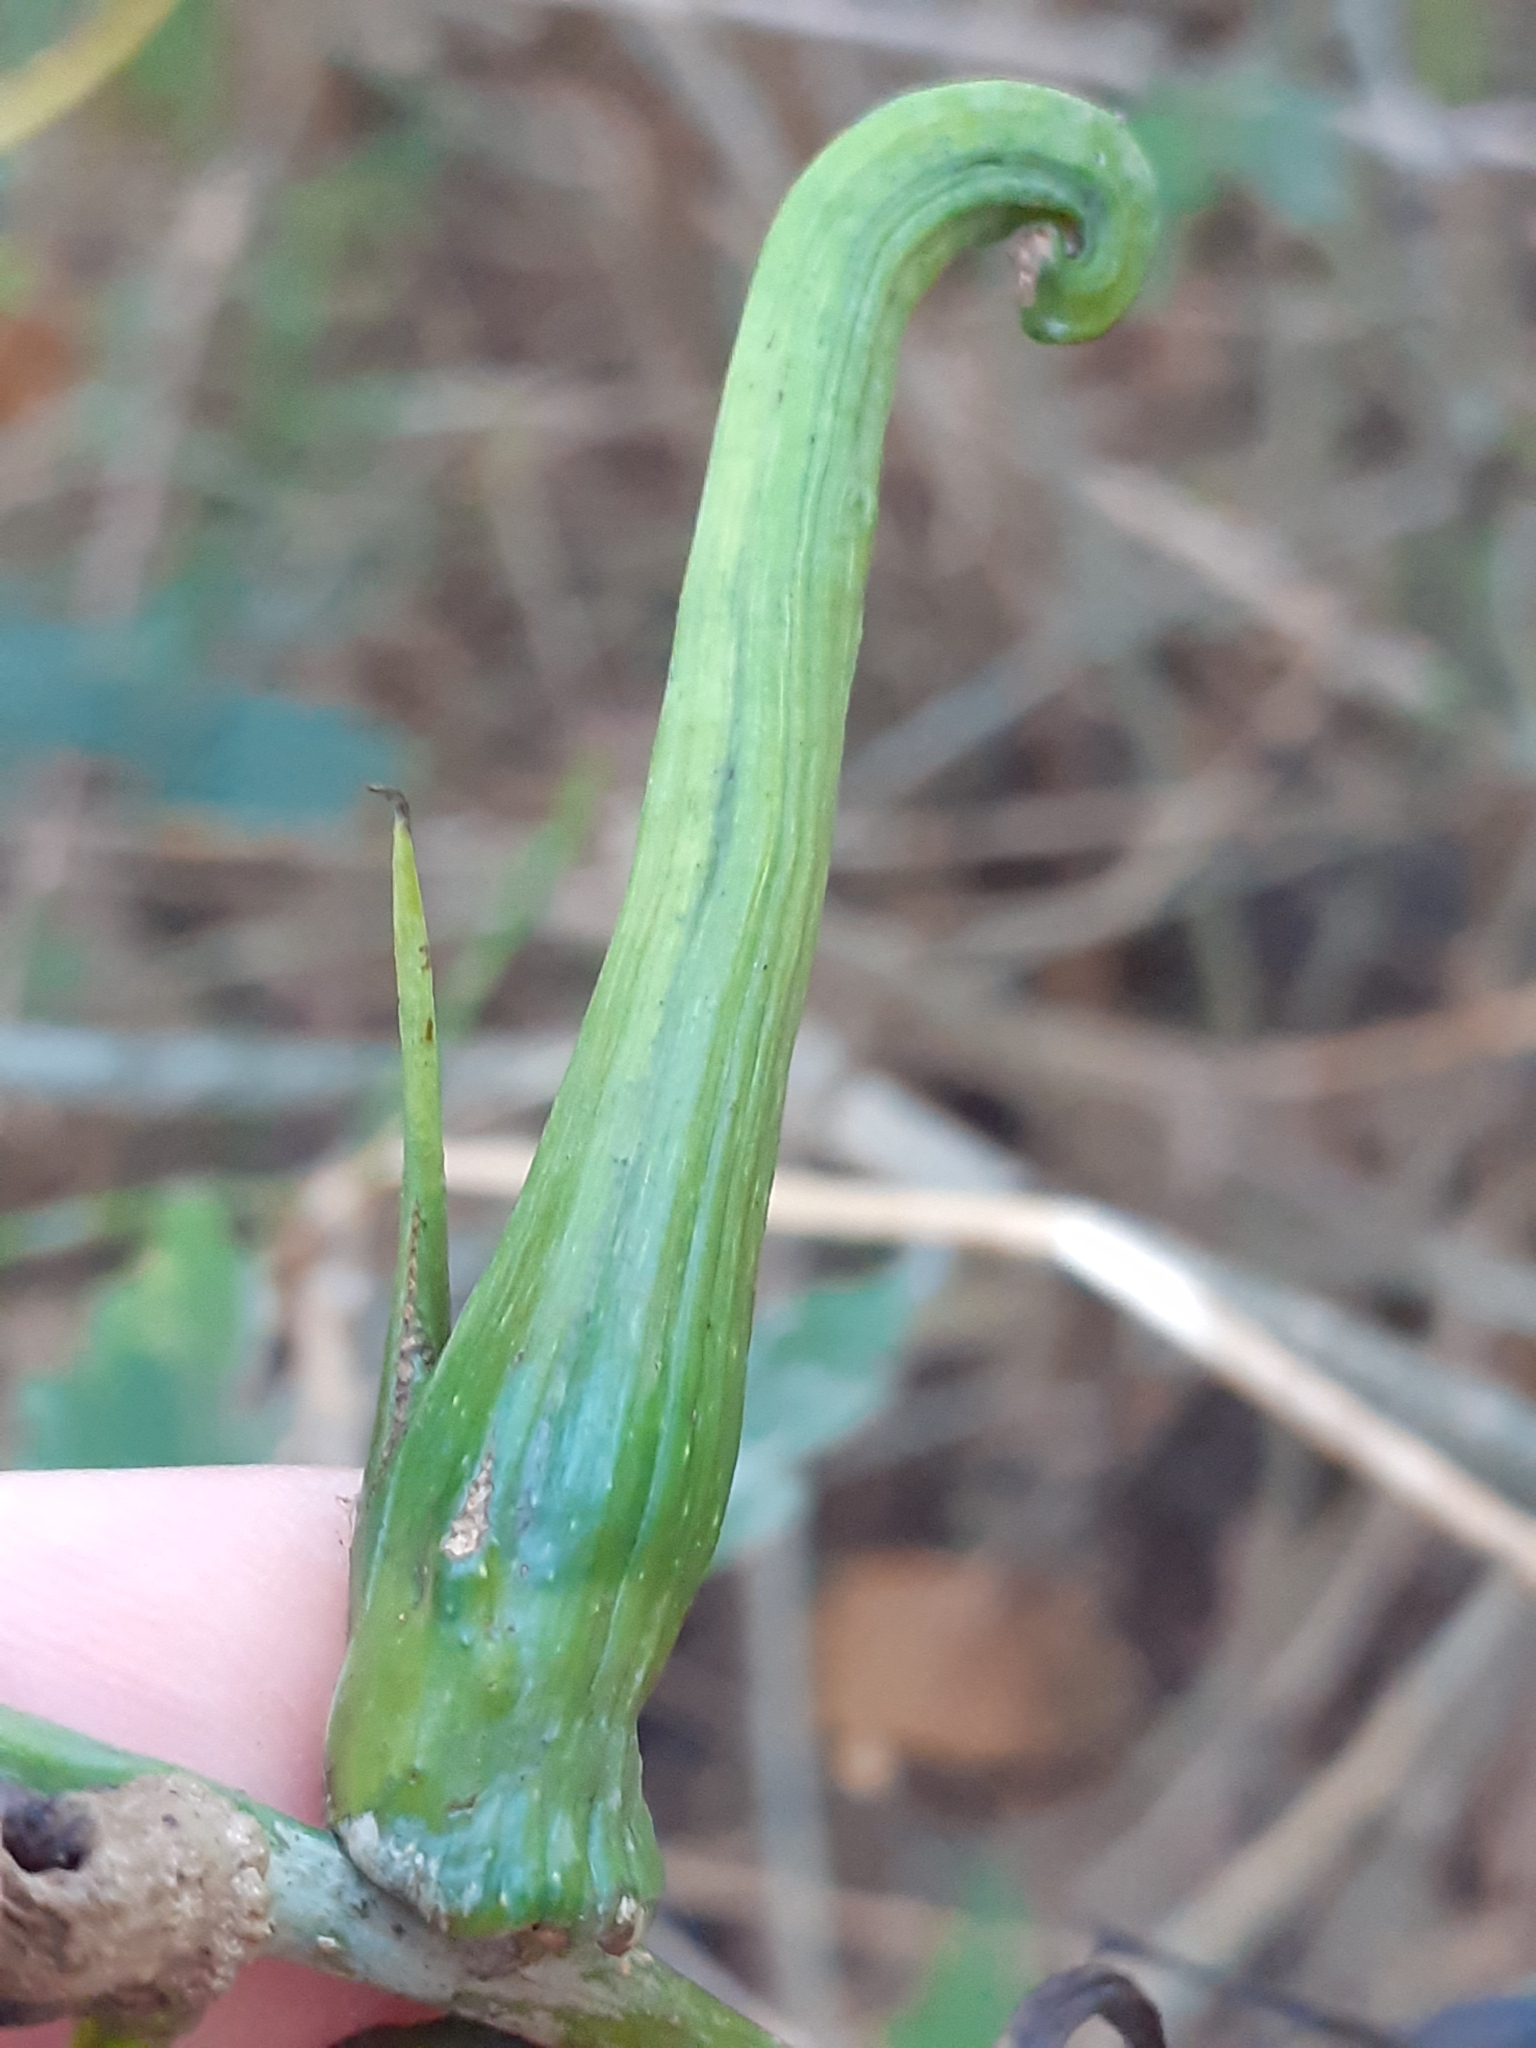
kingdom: Animalia
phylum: Arthropoda
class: Insecta
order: Hymenoptera
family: Cynipidae
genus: Andricus
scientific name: Andricus aries
